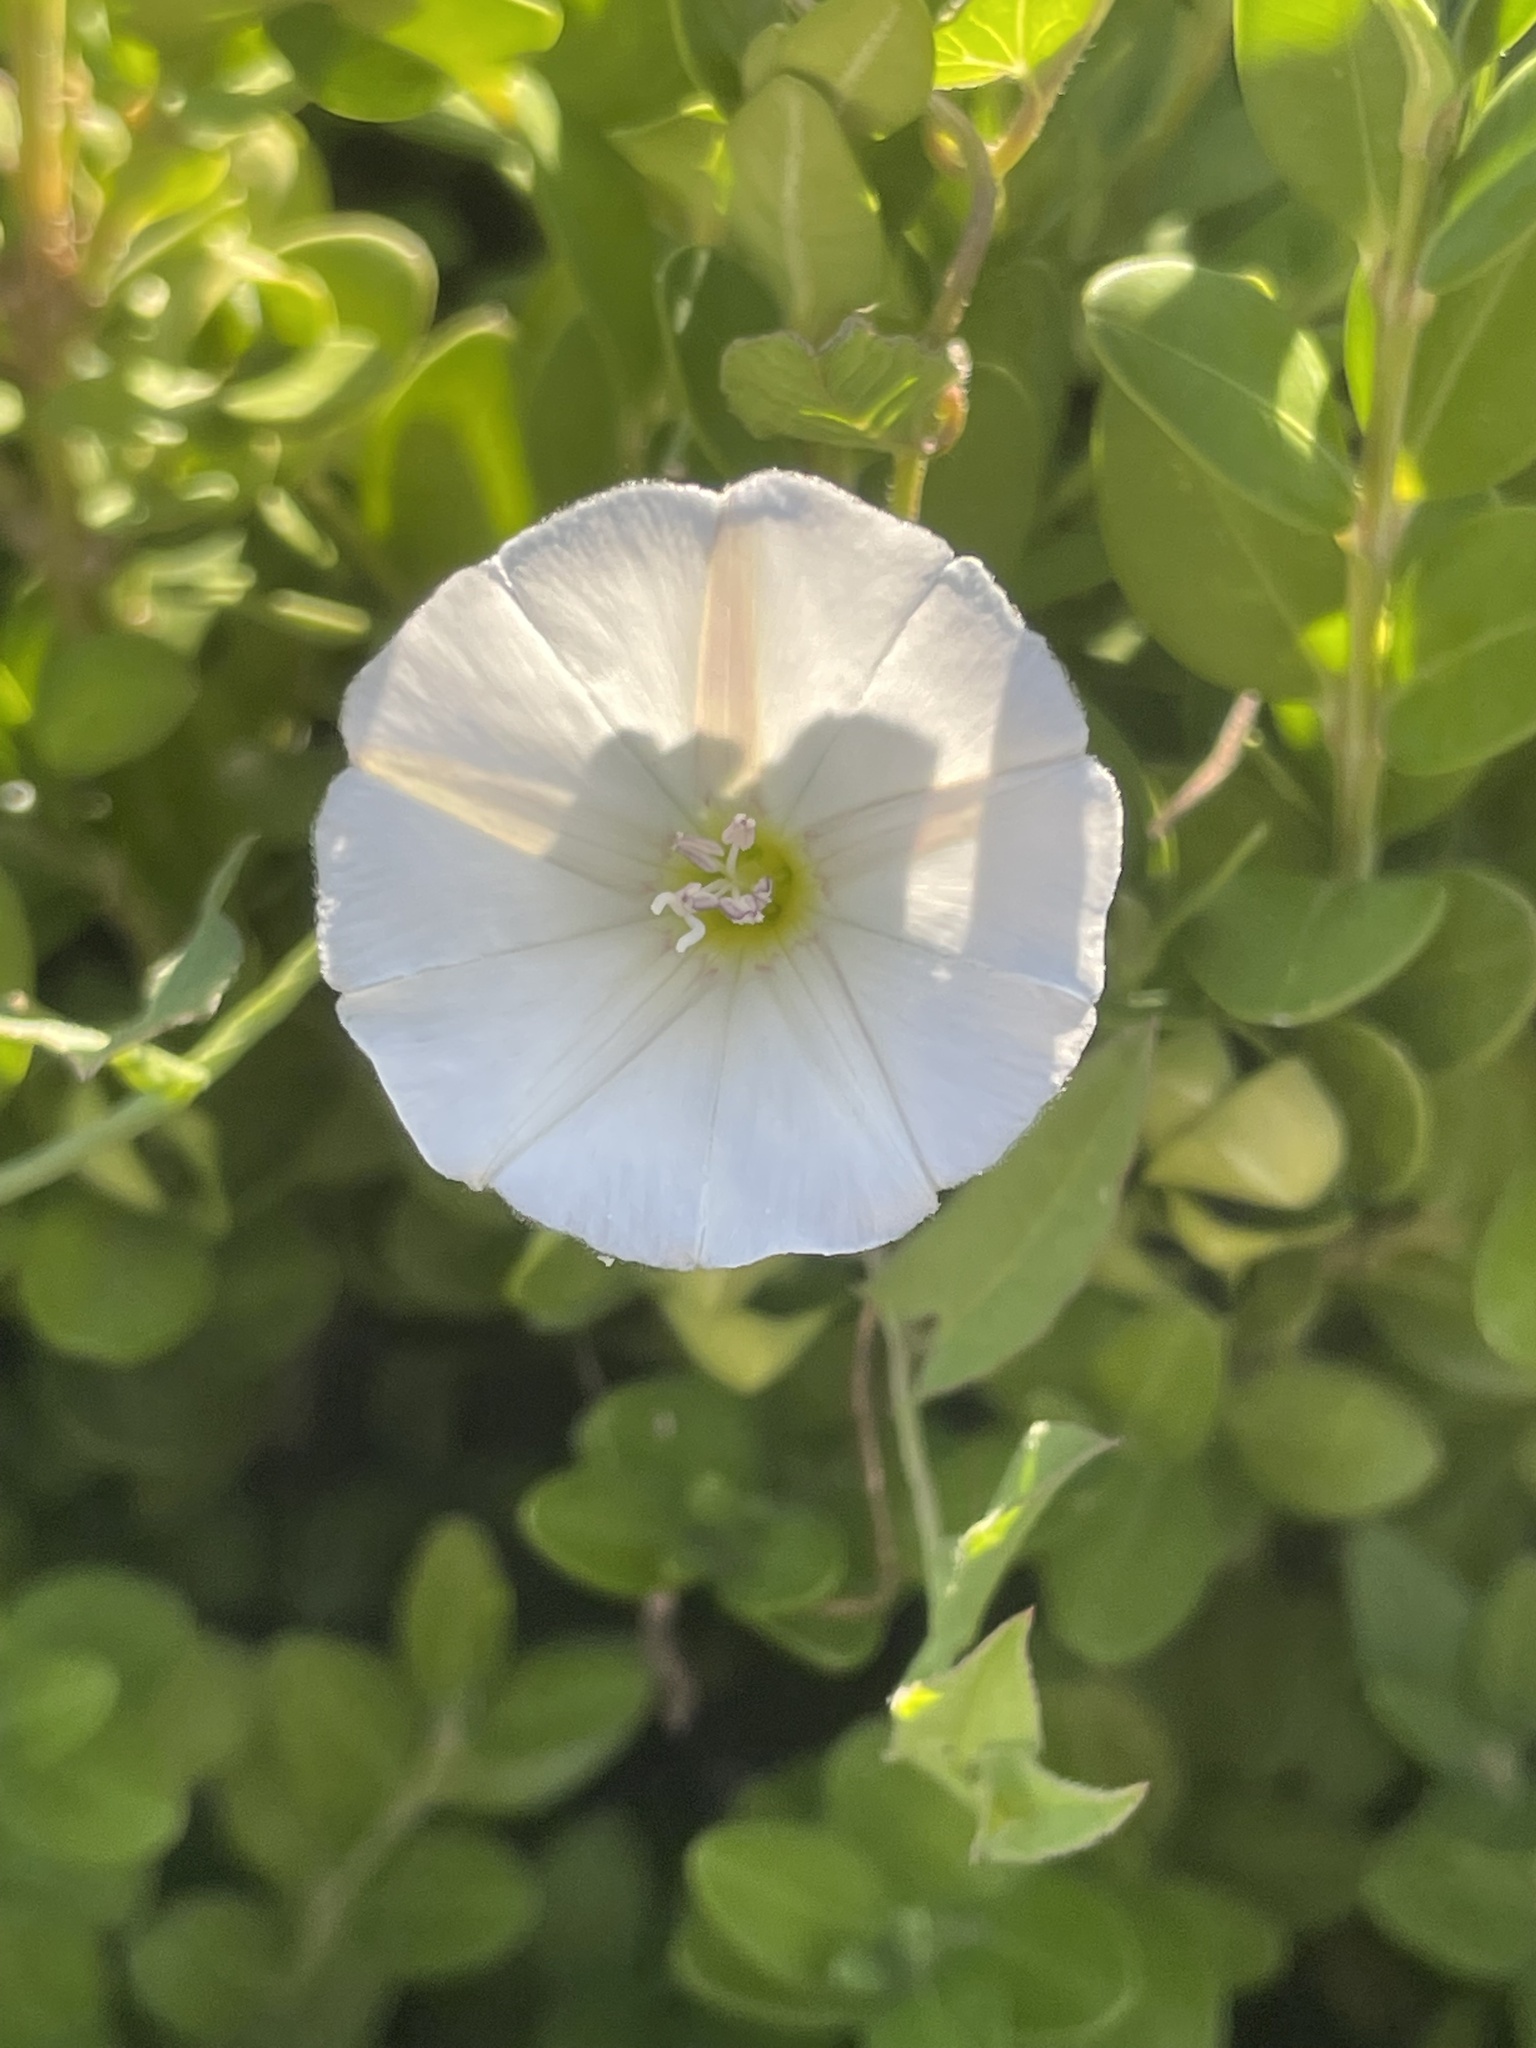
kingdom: Plantae
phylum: Tracheophyta
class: Magnoliopsida
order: Solanales
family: Convolvulaceae
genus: Convolvulus
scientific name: Convolvulus arvensis
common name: Field bindweed
